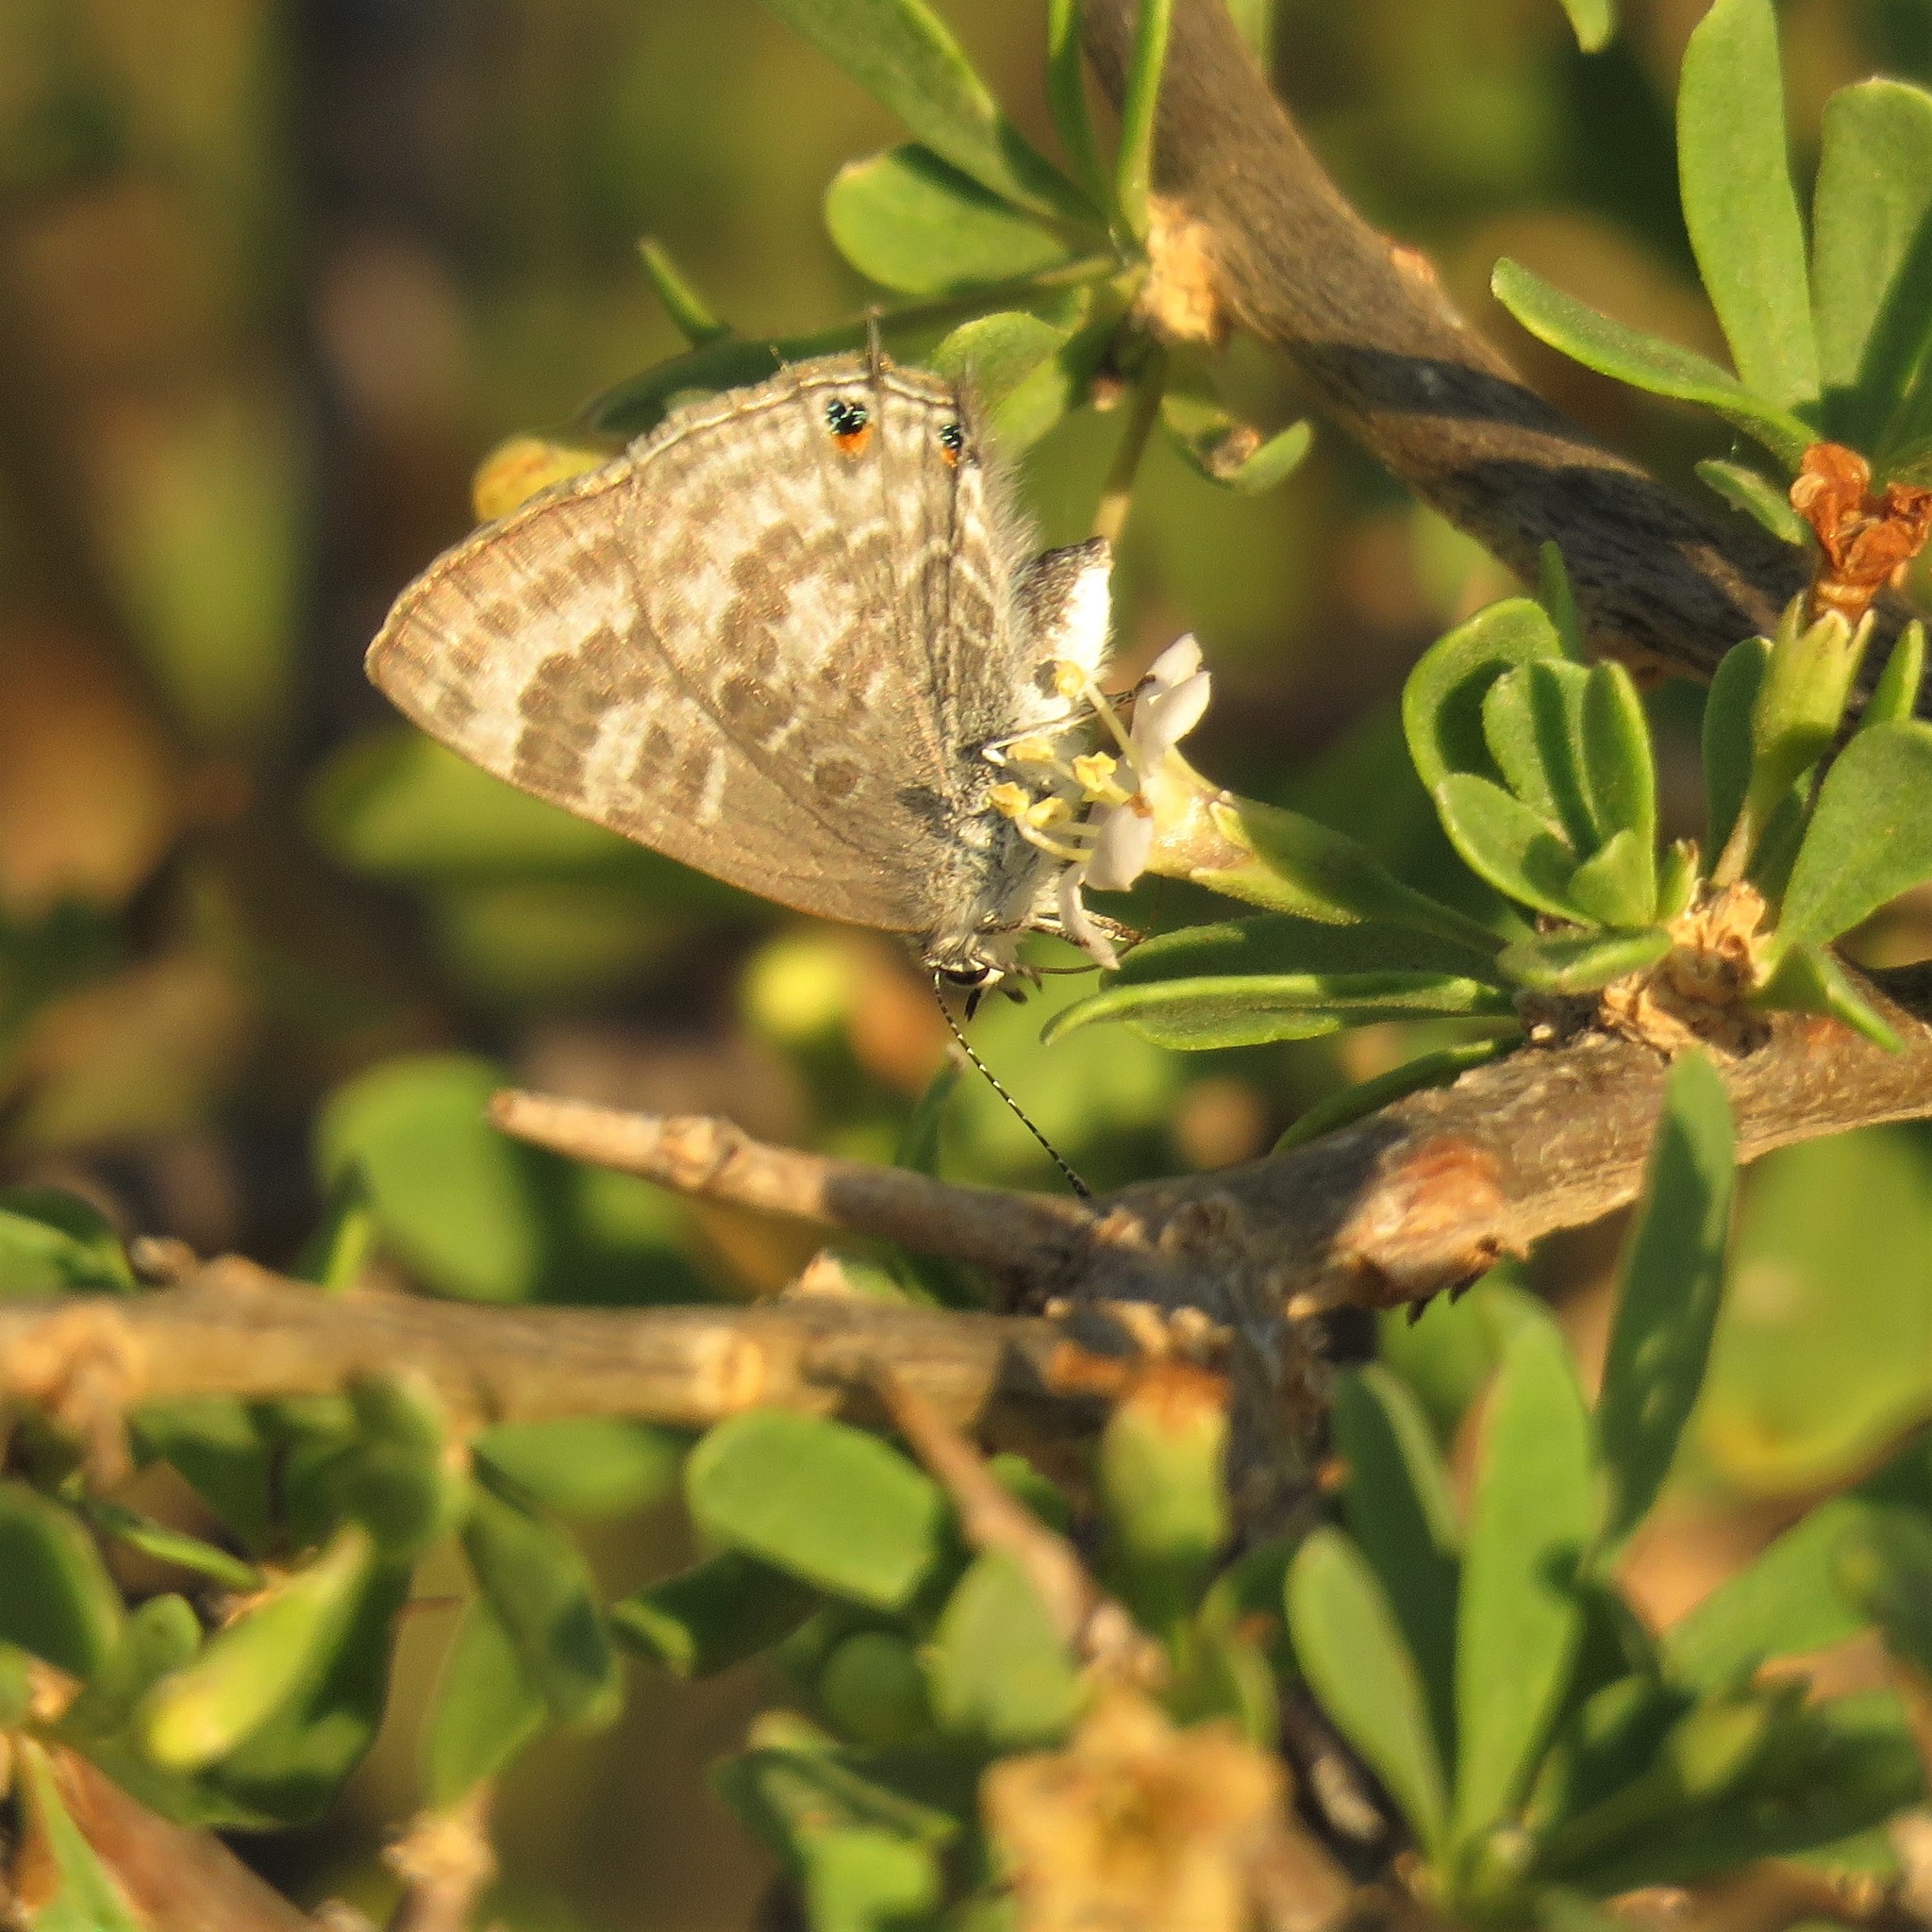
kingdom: Animalia
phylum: Arthropoda
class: Insecta
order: Lepidoptera
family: Lycaenidae
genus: Anthene
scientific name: Anthene definita
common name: Common ciliate blue
